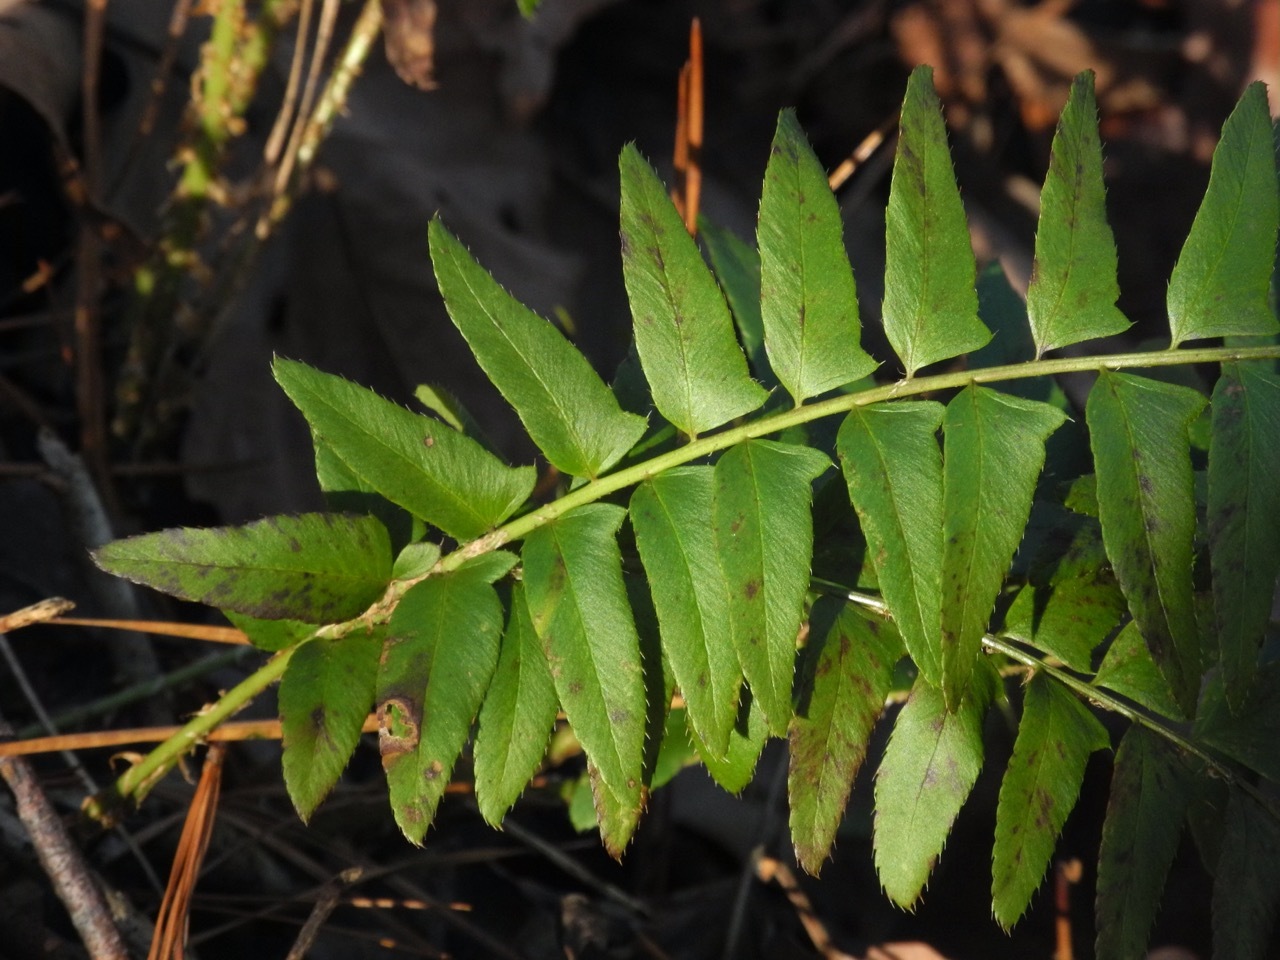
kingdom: Plantae
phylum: Tracheophyta
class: Polypodiopsida
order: Polypodiales
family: Dryopteridaceae
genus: Polystichum
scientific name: Polystichum acrostichoides
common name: Christmas fern
